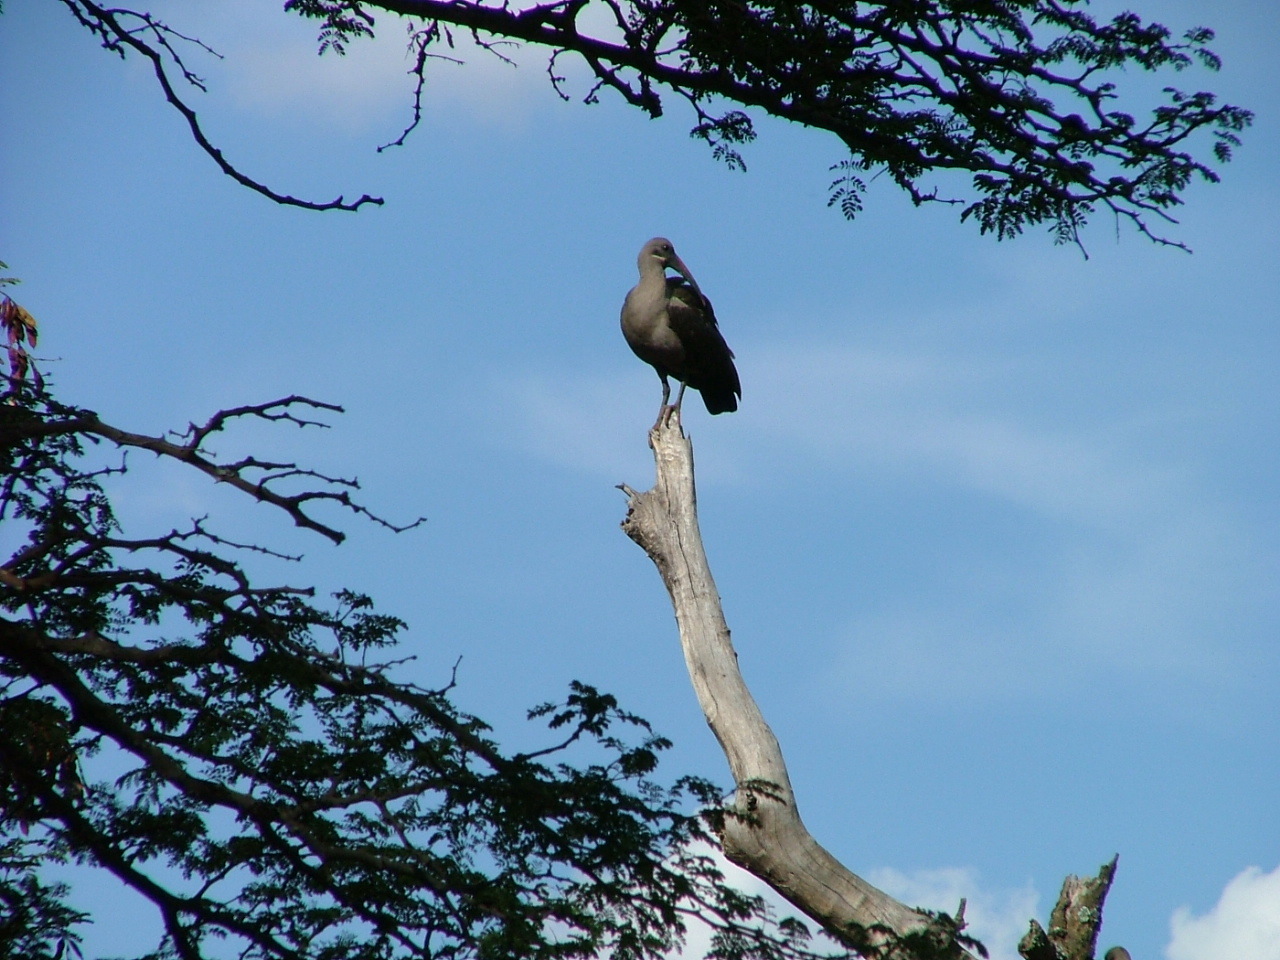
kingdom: Animalia
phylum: Chordata
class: Aves
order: Pelecaniformes
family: Threskiornithidae
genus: Bostrychia
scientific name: Bostrychia hagedash
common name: Hadada ibis
